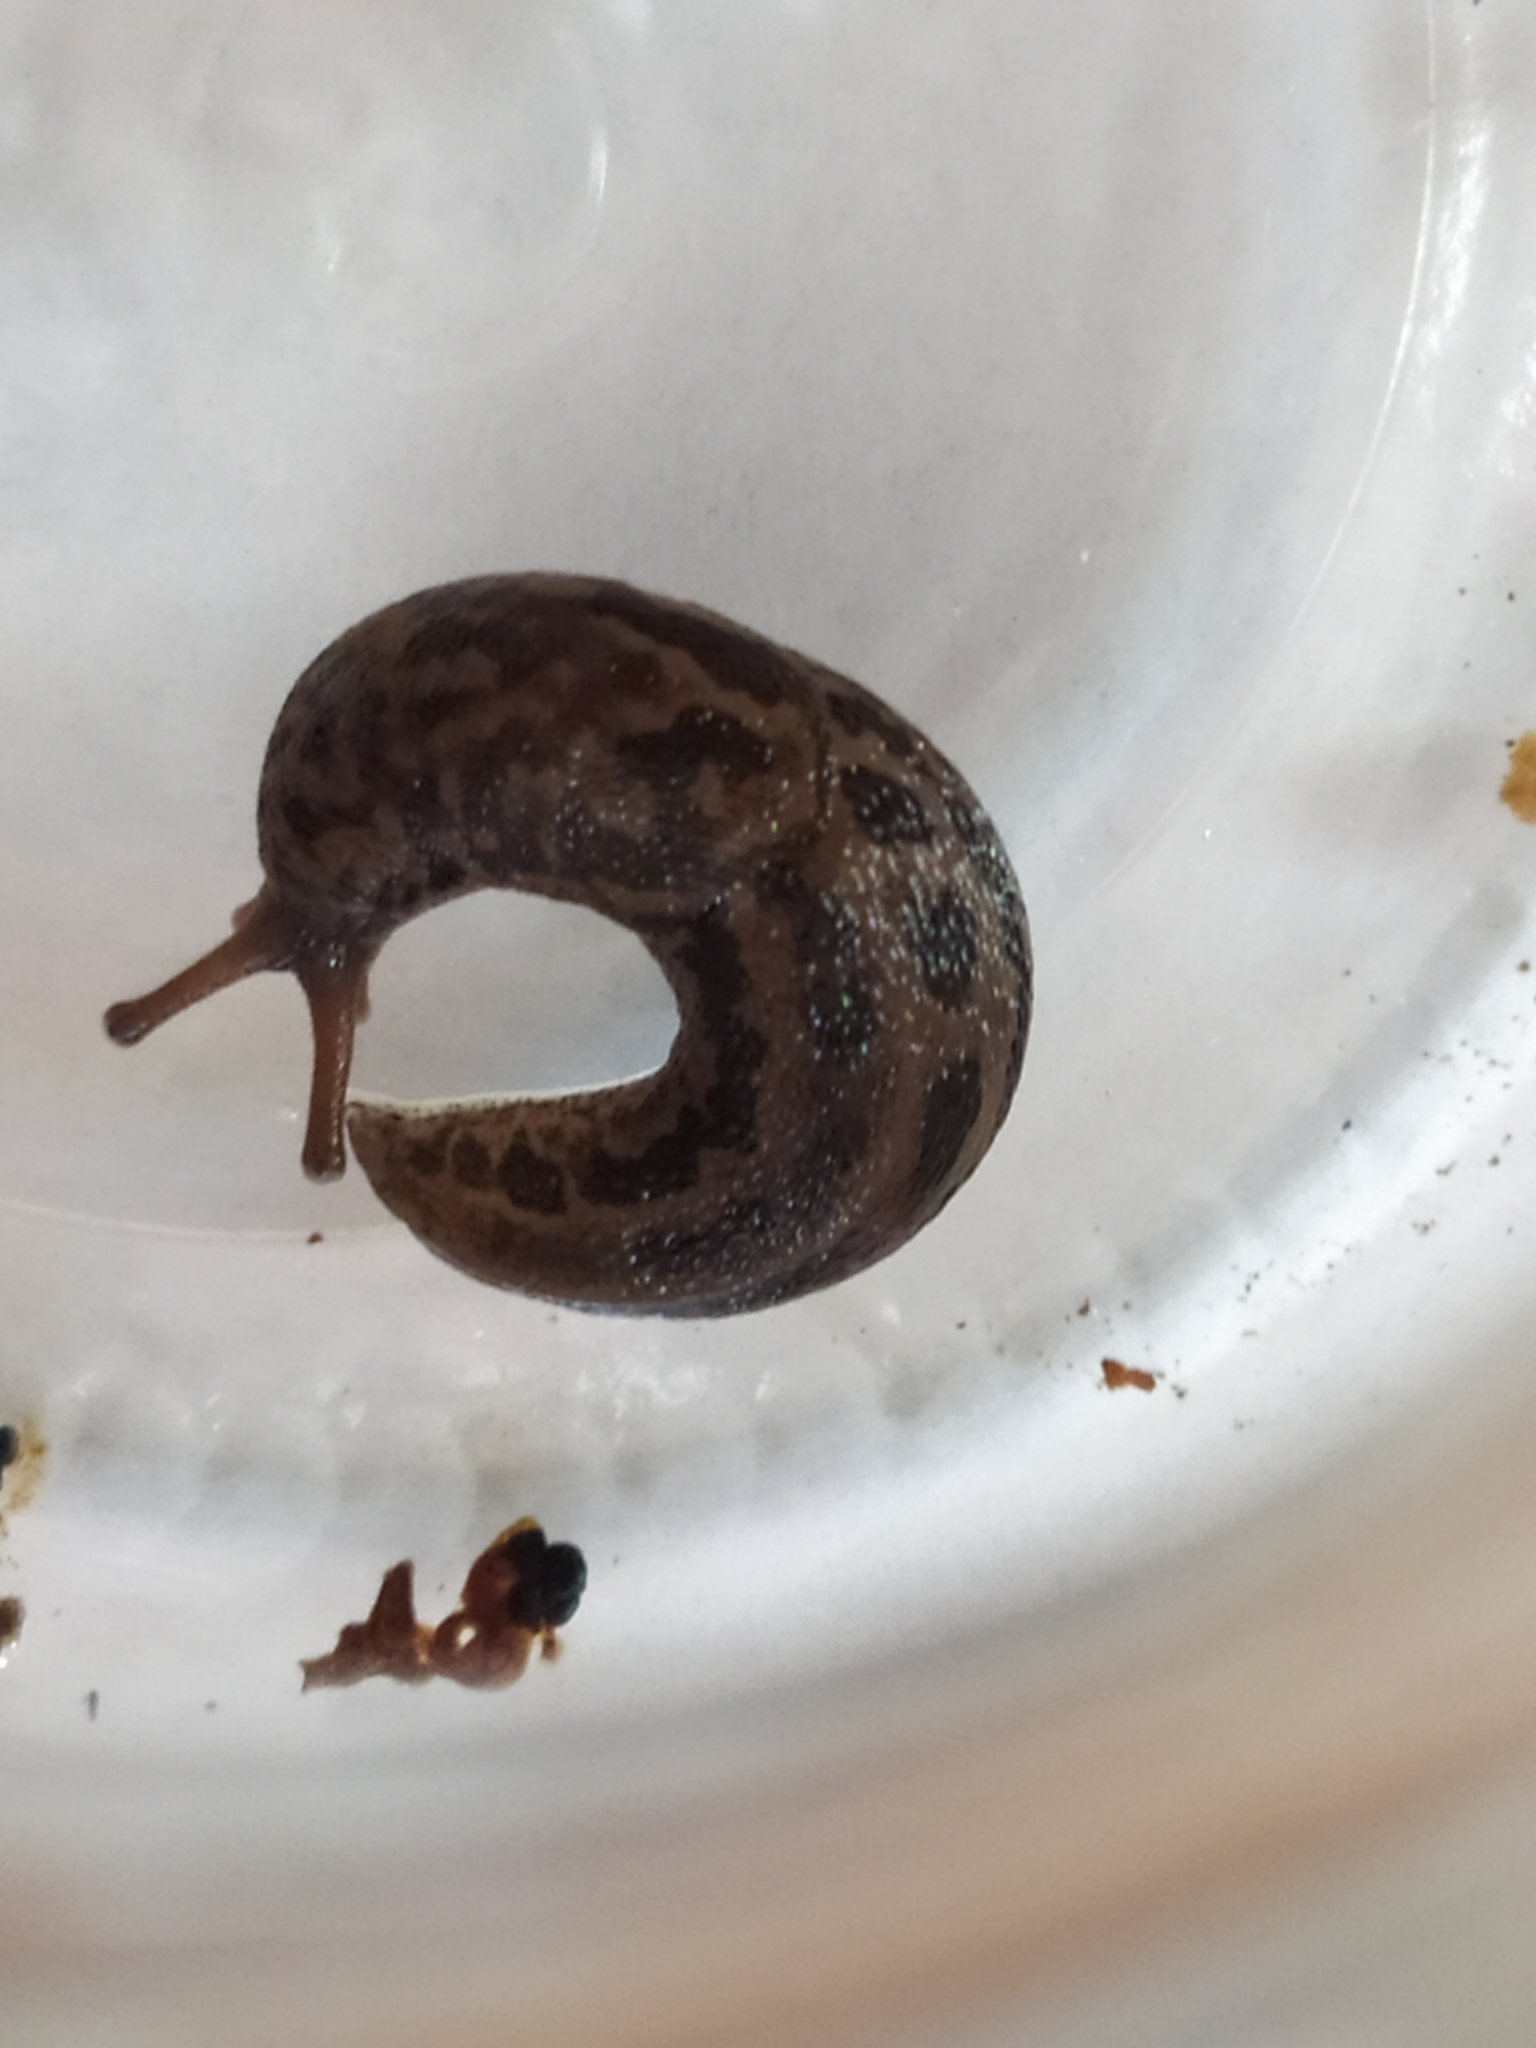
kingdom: Animalia
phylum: Mollusca
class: Gastropoda
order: Stylommatophora
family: Limacidae
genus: Limax
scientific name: Limax maximus
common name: Great grey slug
